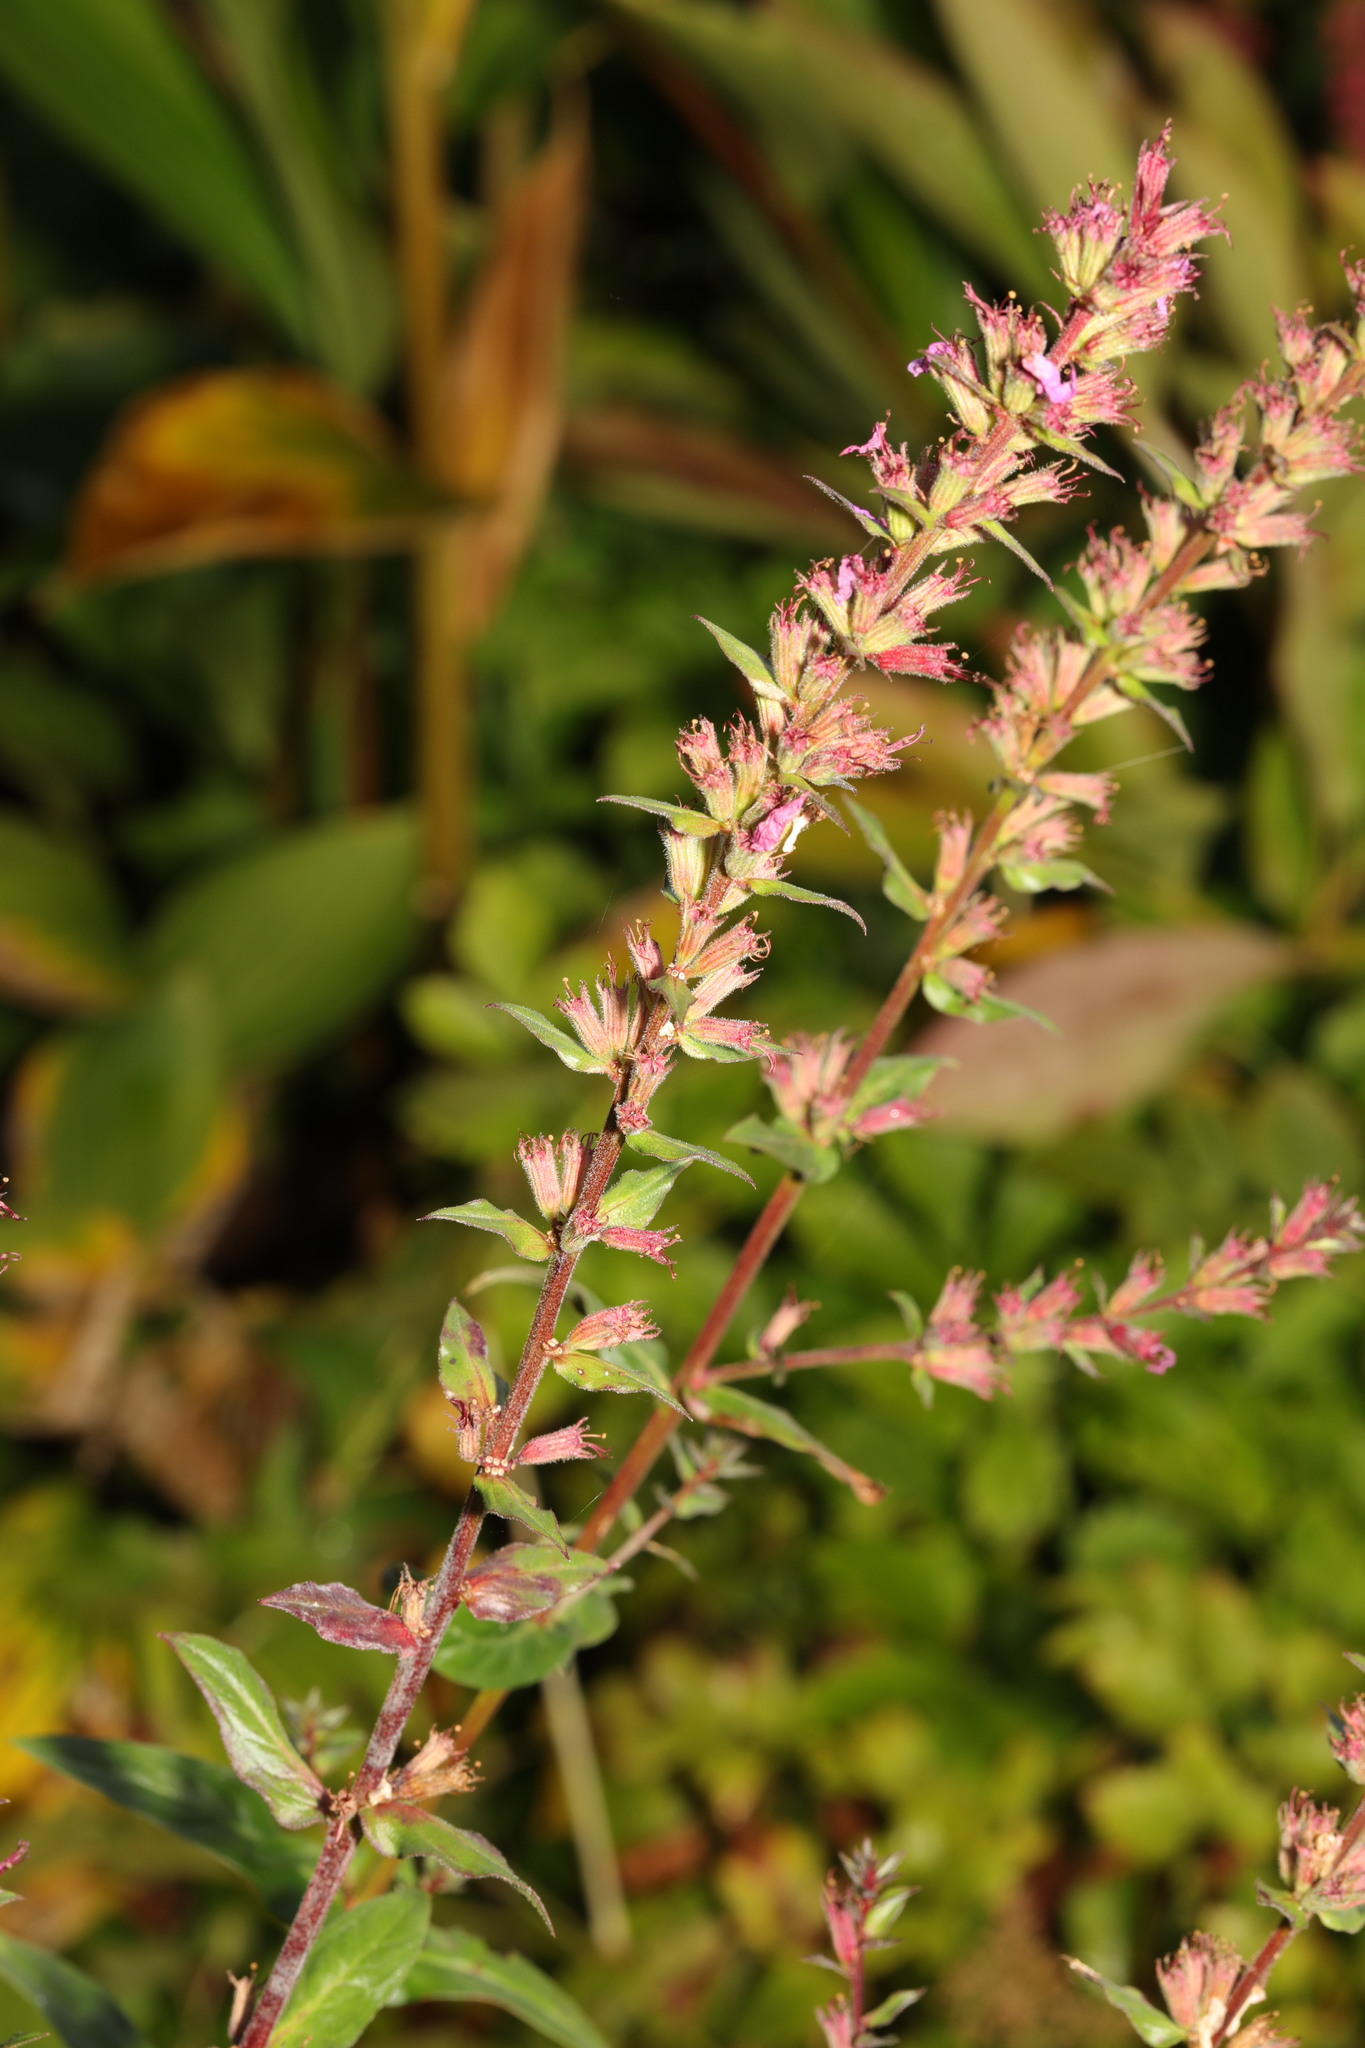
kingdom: Plantae
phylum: Tracheophyta
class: Magnoliopsida
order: Myrtales
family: Lythraceae
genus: Lythrum
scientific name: Lythrum salicaria
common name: Purple loosestrife
